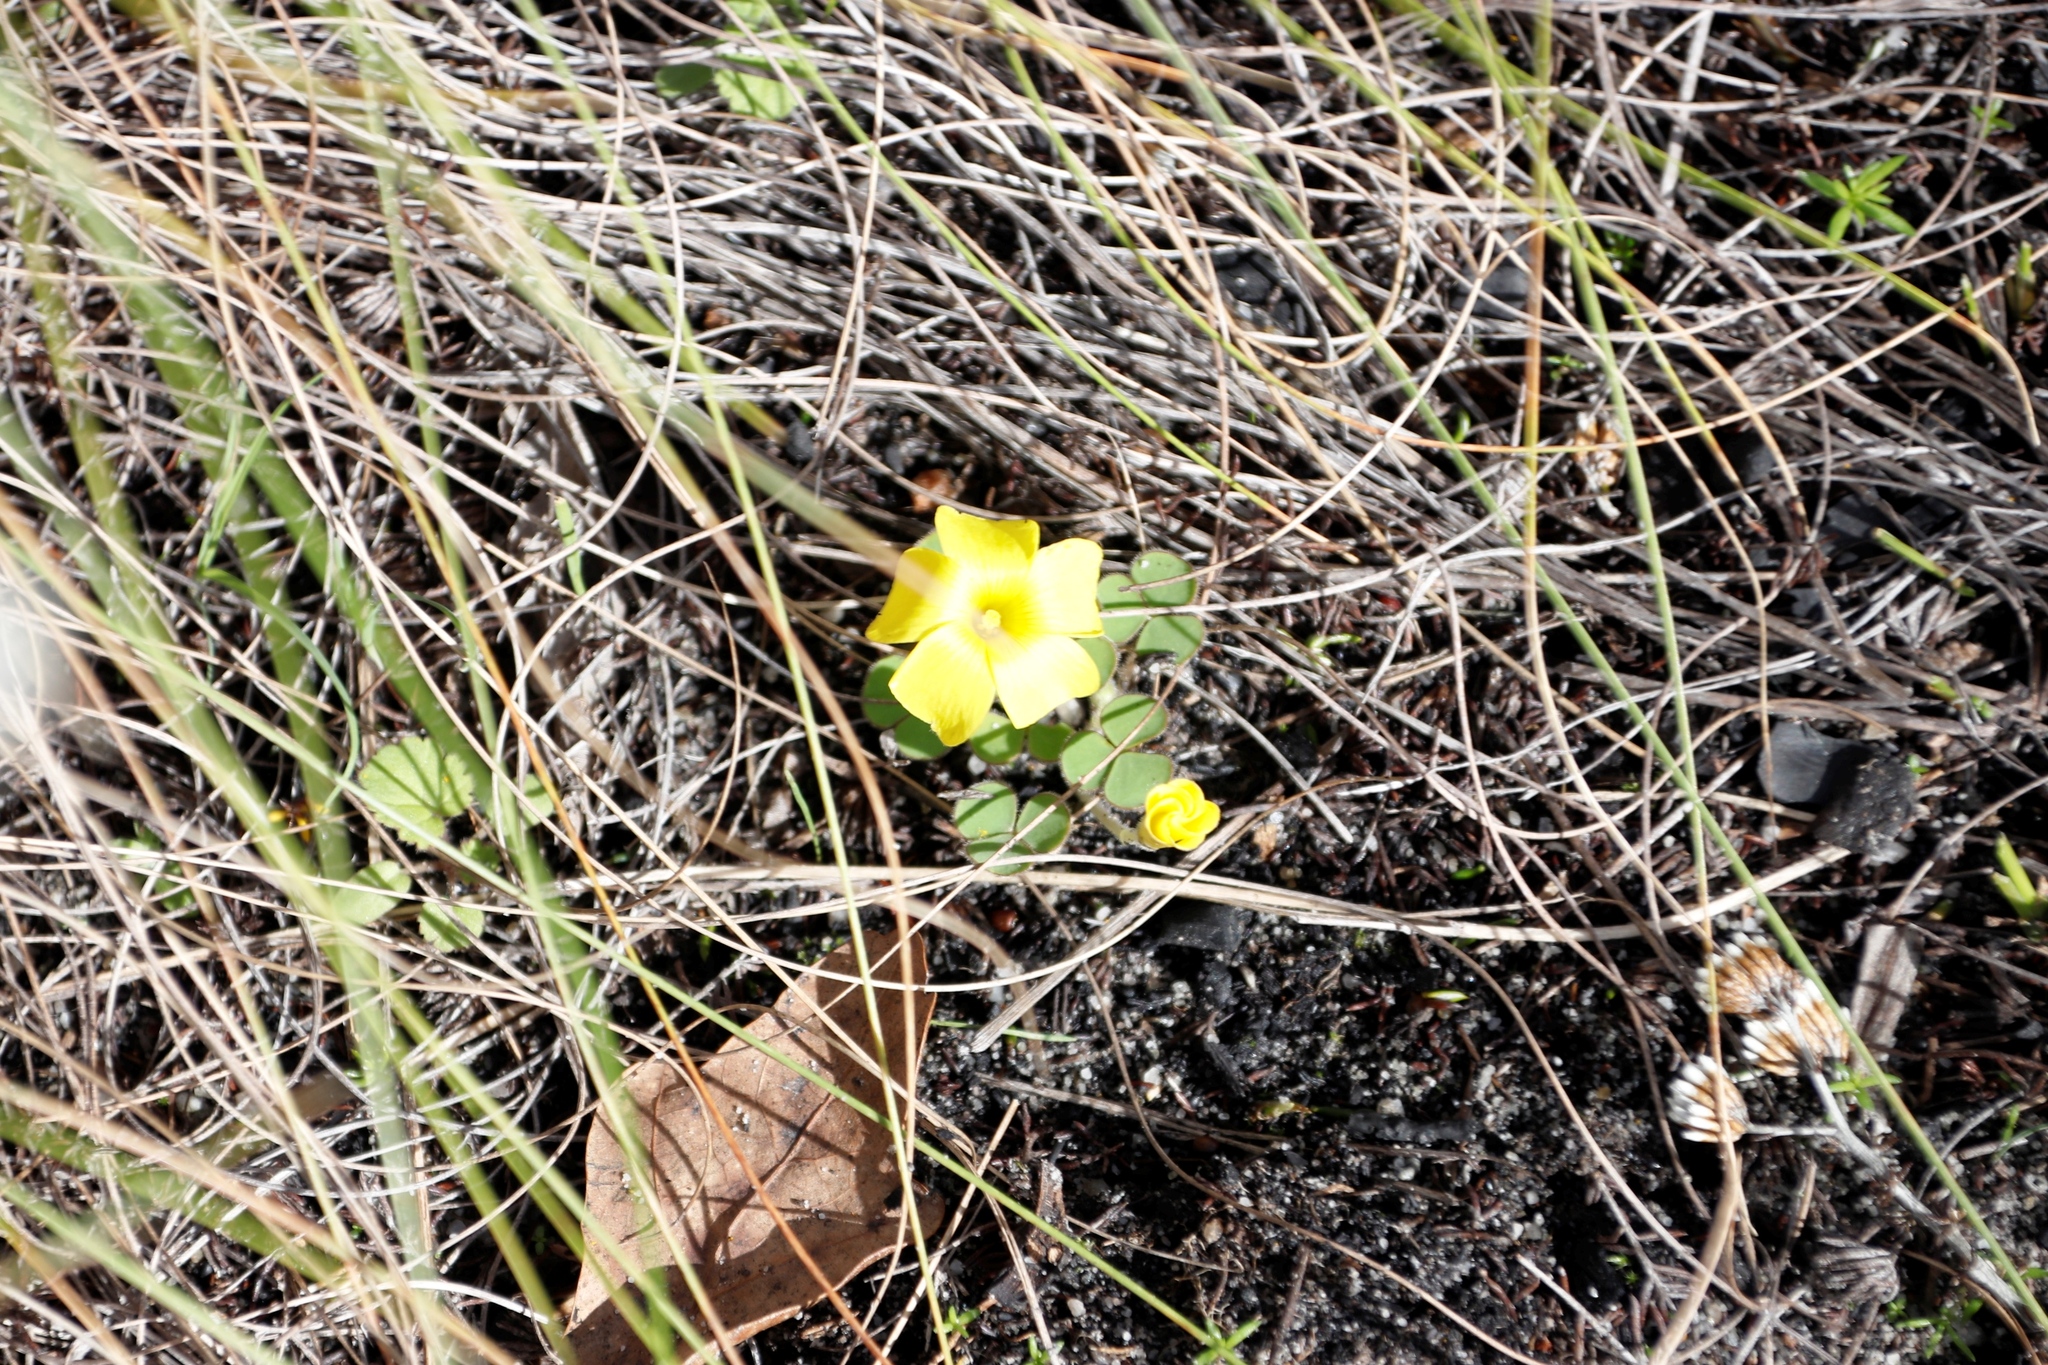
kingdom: Plantae
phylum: Tracheophyta
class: Magnoliopsida
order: Oxalidales
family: Oxalidaceae
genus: Oxalis
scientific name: Oxalis luteola
